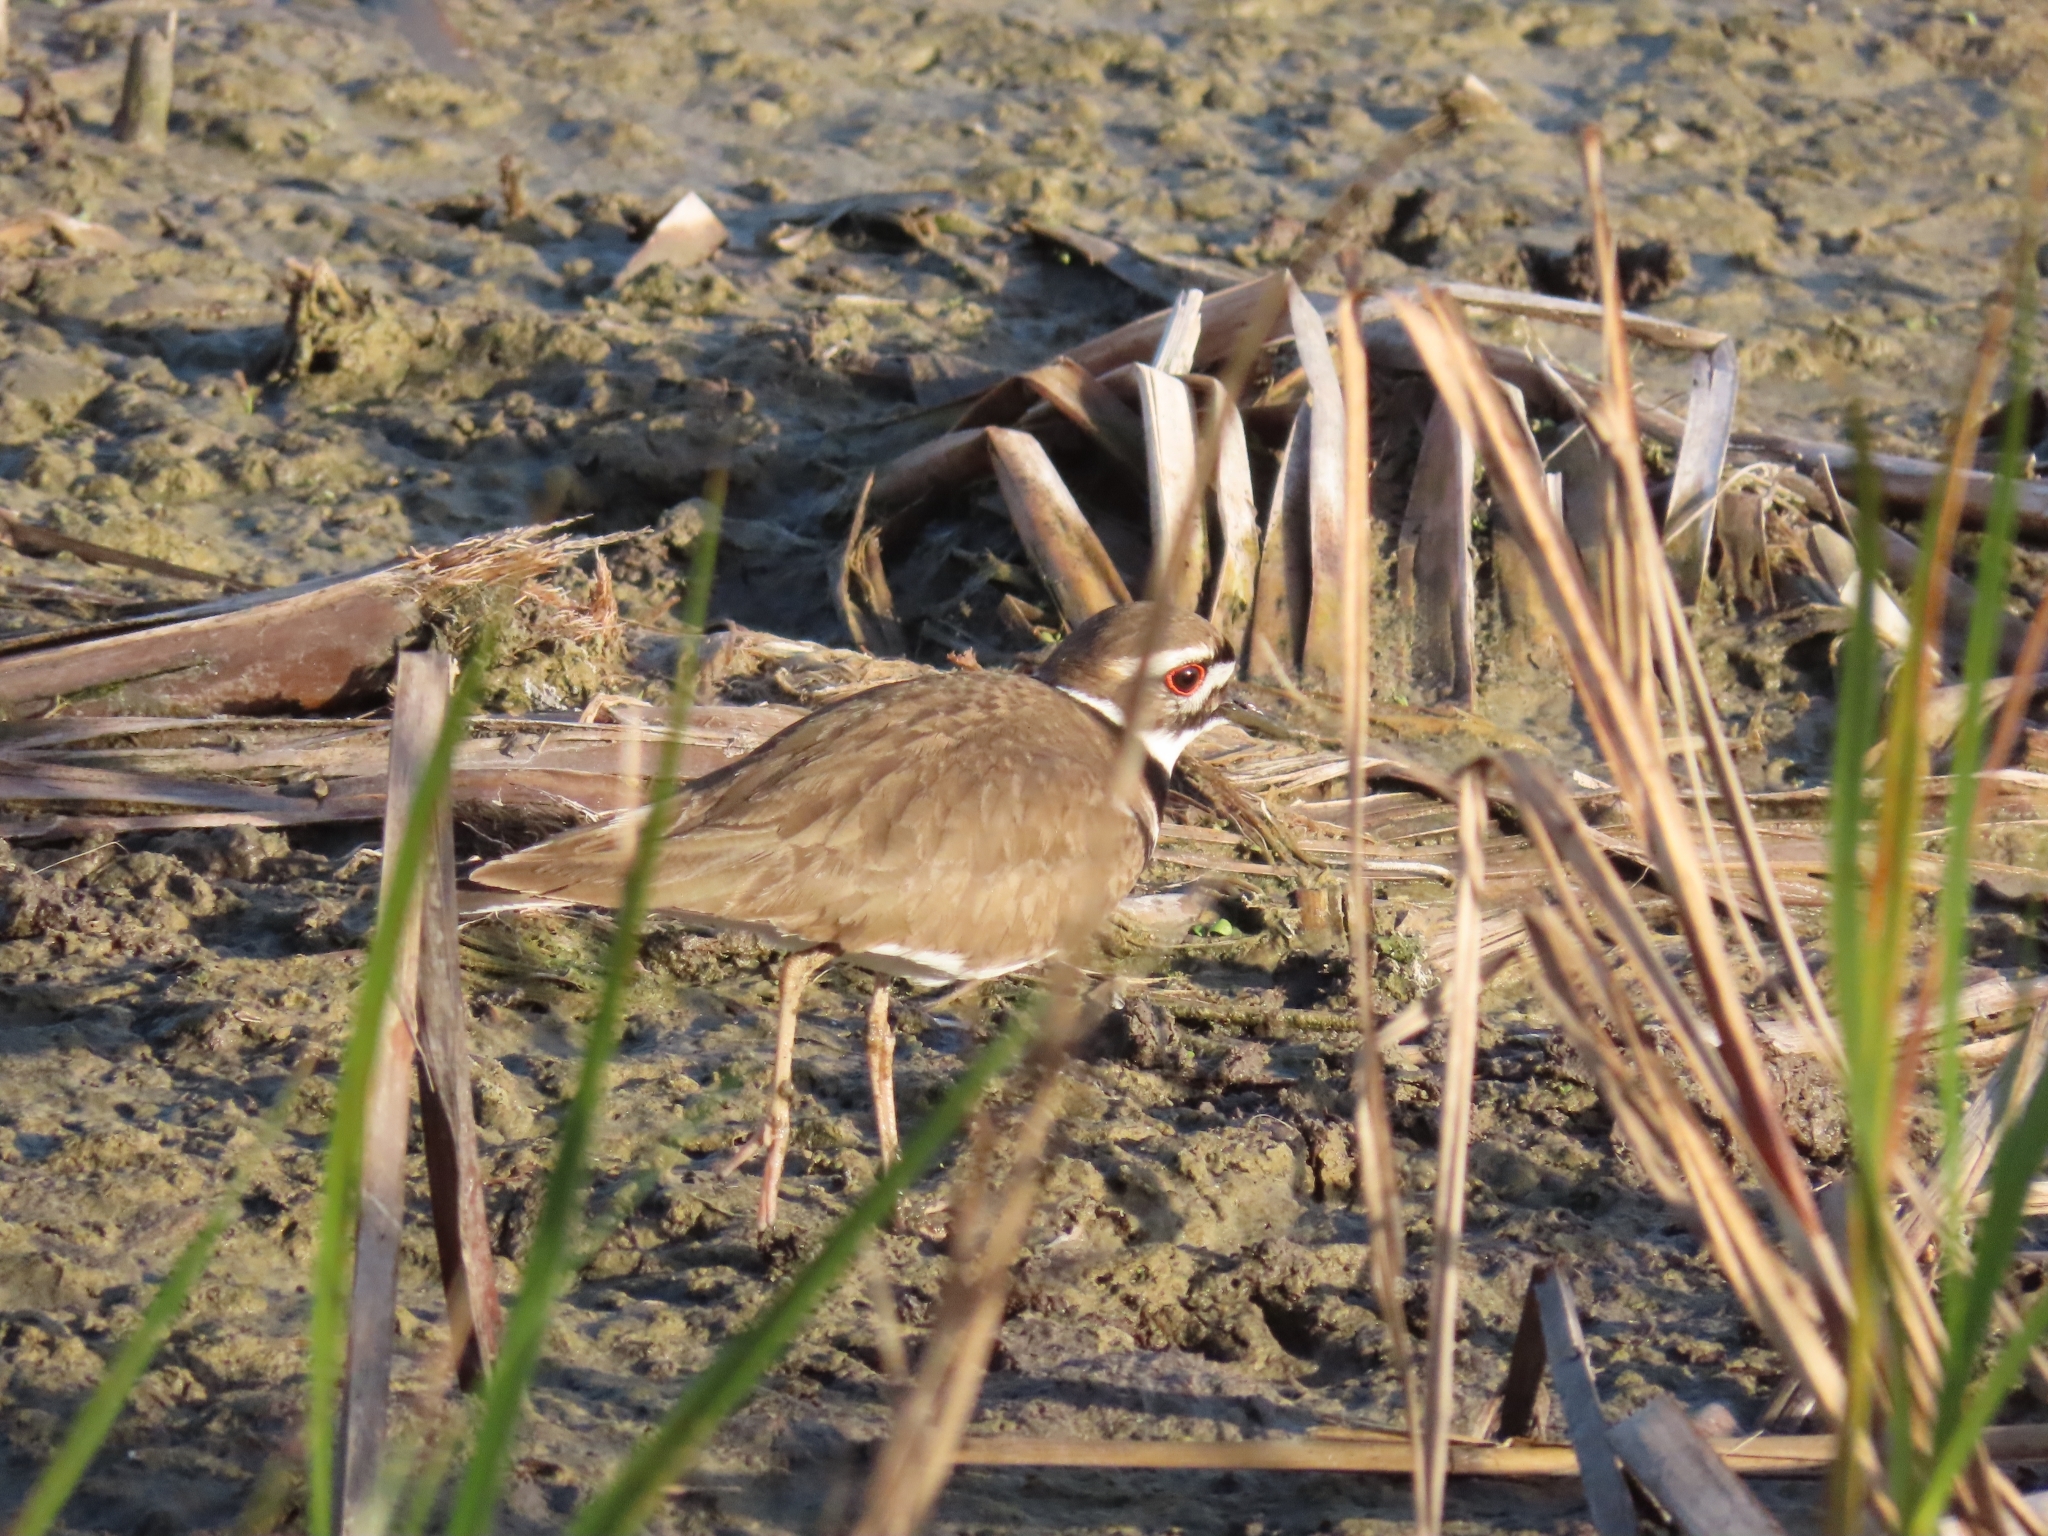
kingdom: Animalia
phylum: Chordata
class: Aves
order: Charadriiformes
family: Charadriidae
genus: Charadrius
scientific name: Charadrius vociferus
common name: Killdeer
